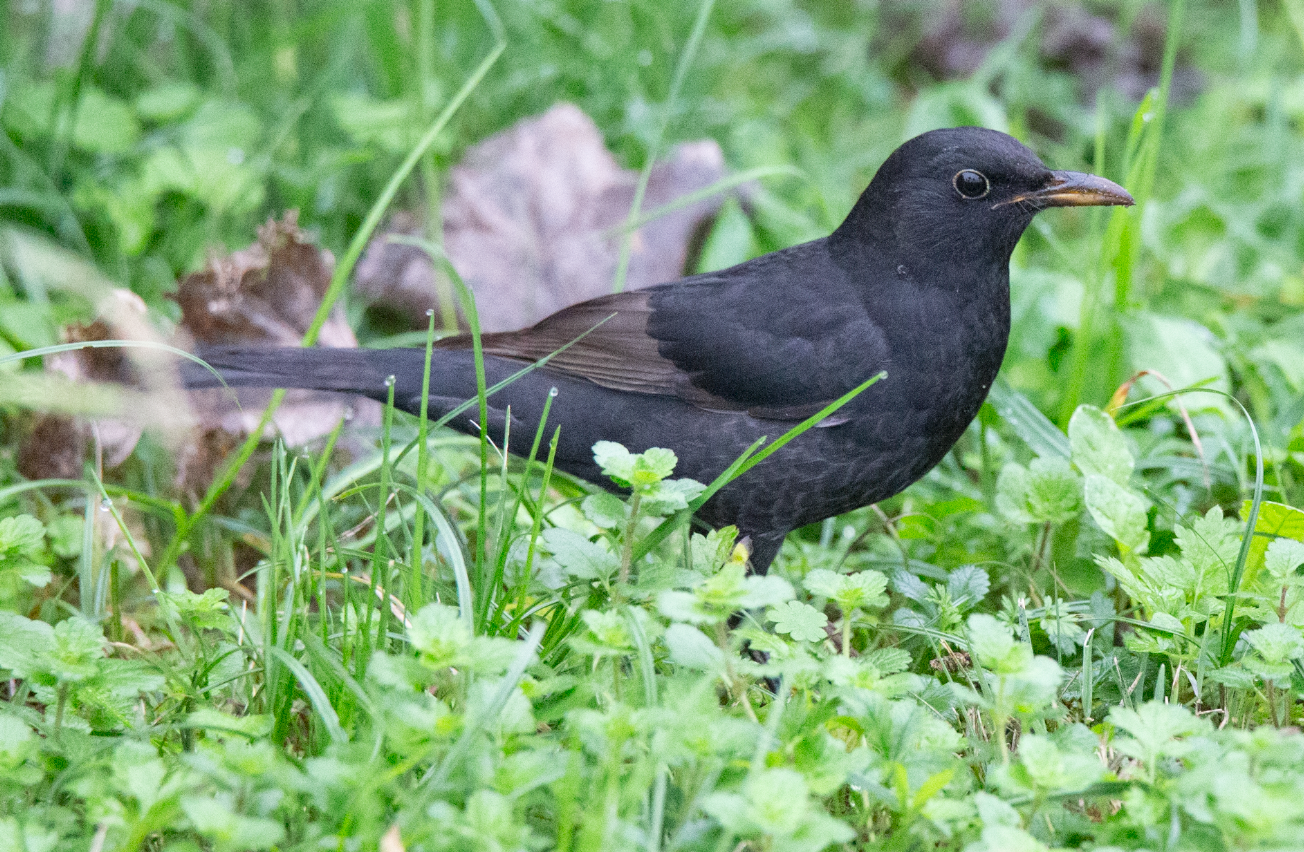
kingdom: Animalia
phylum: Chordata
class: Aves
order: Passeriformes
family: Turdidae
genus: Turdus
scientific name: Turdus merula
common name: Common blackbird
